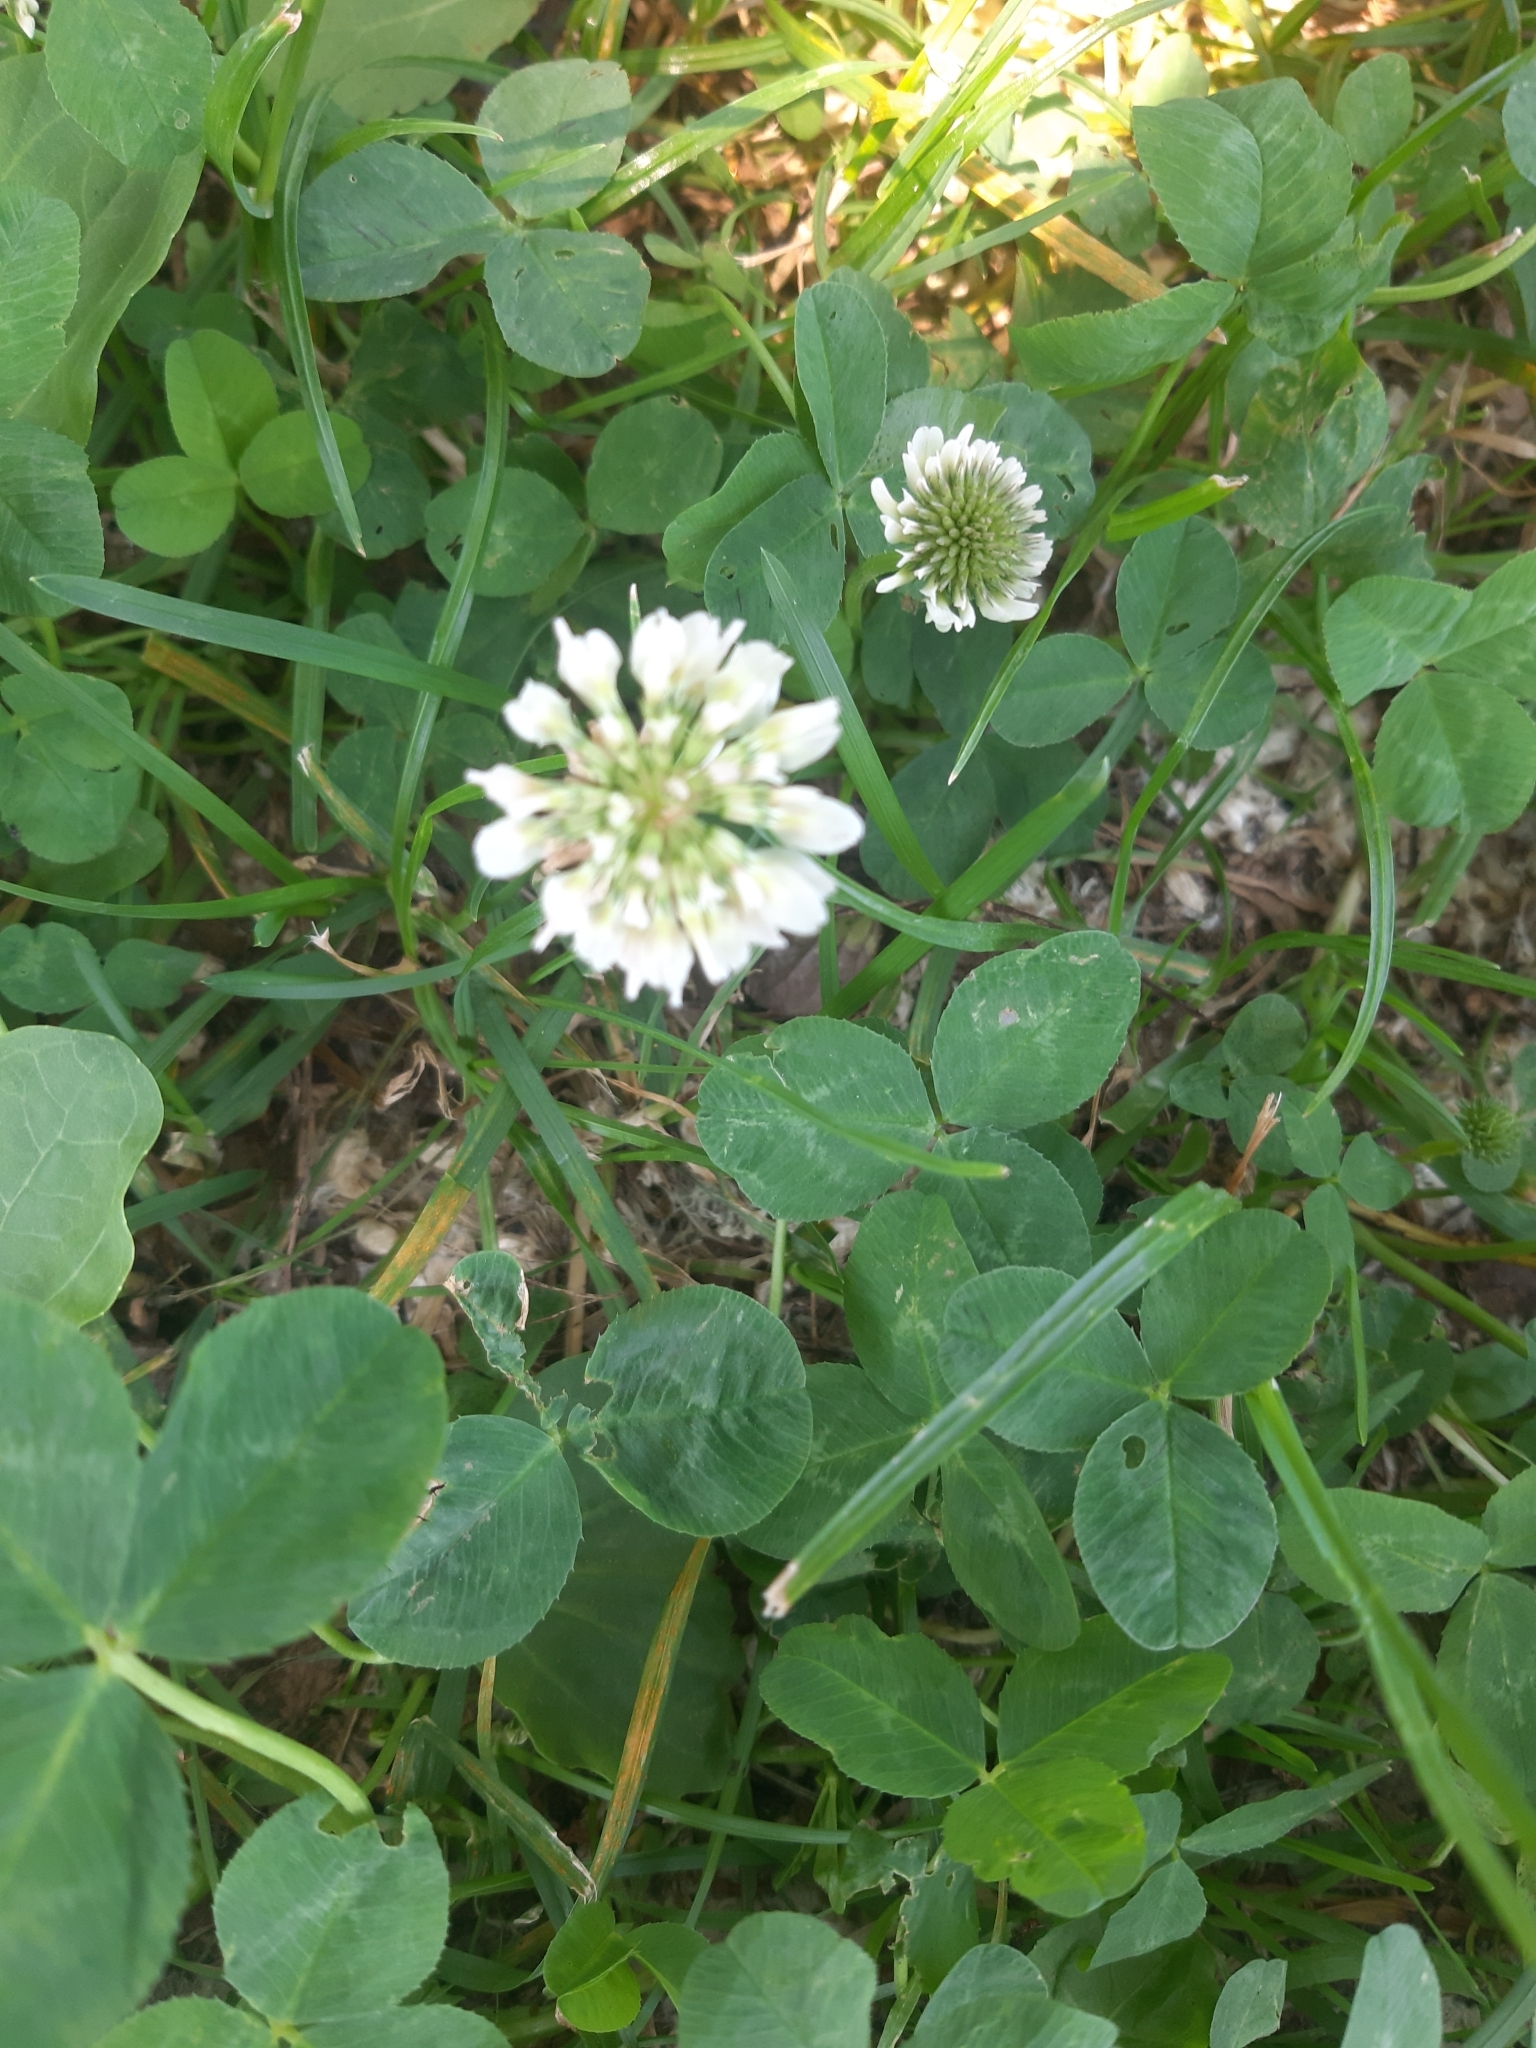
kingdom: Plantae
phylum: Tracheophyta
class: Magnoliopsida
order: Fabales
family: Fabaceae
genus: Trifolium
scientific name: Trifolium repens
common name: White clover
